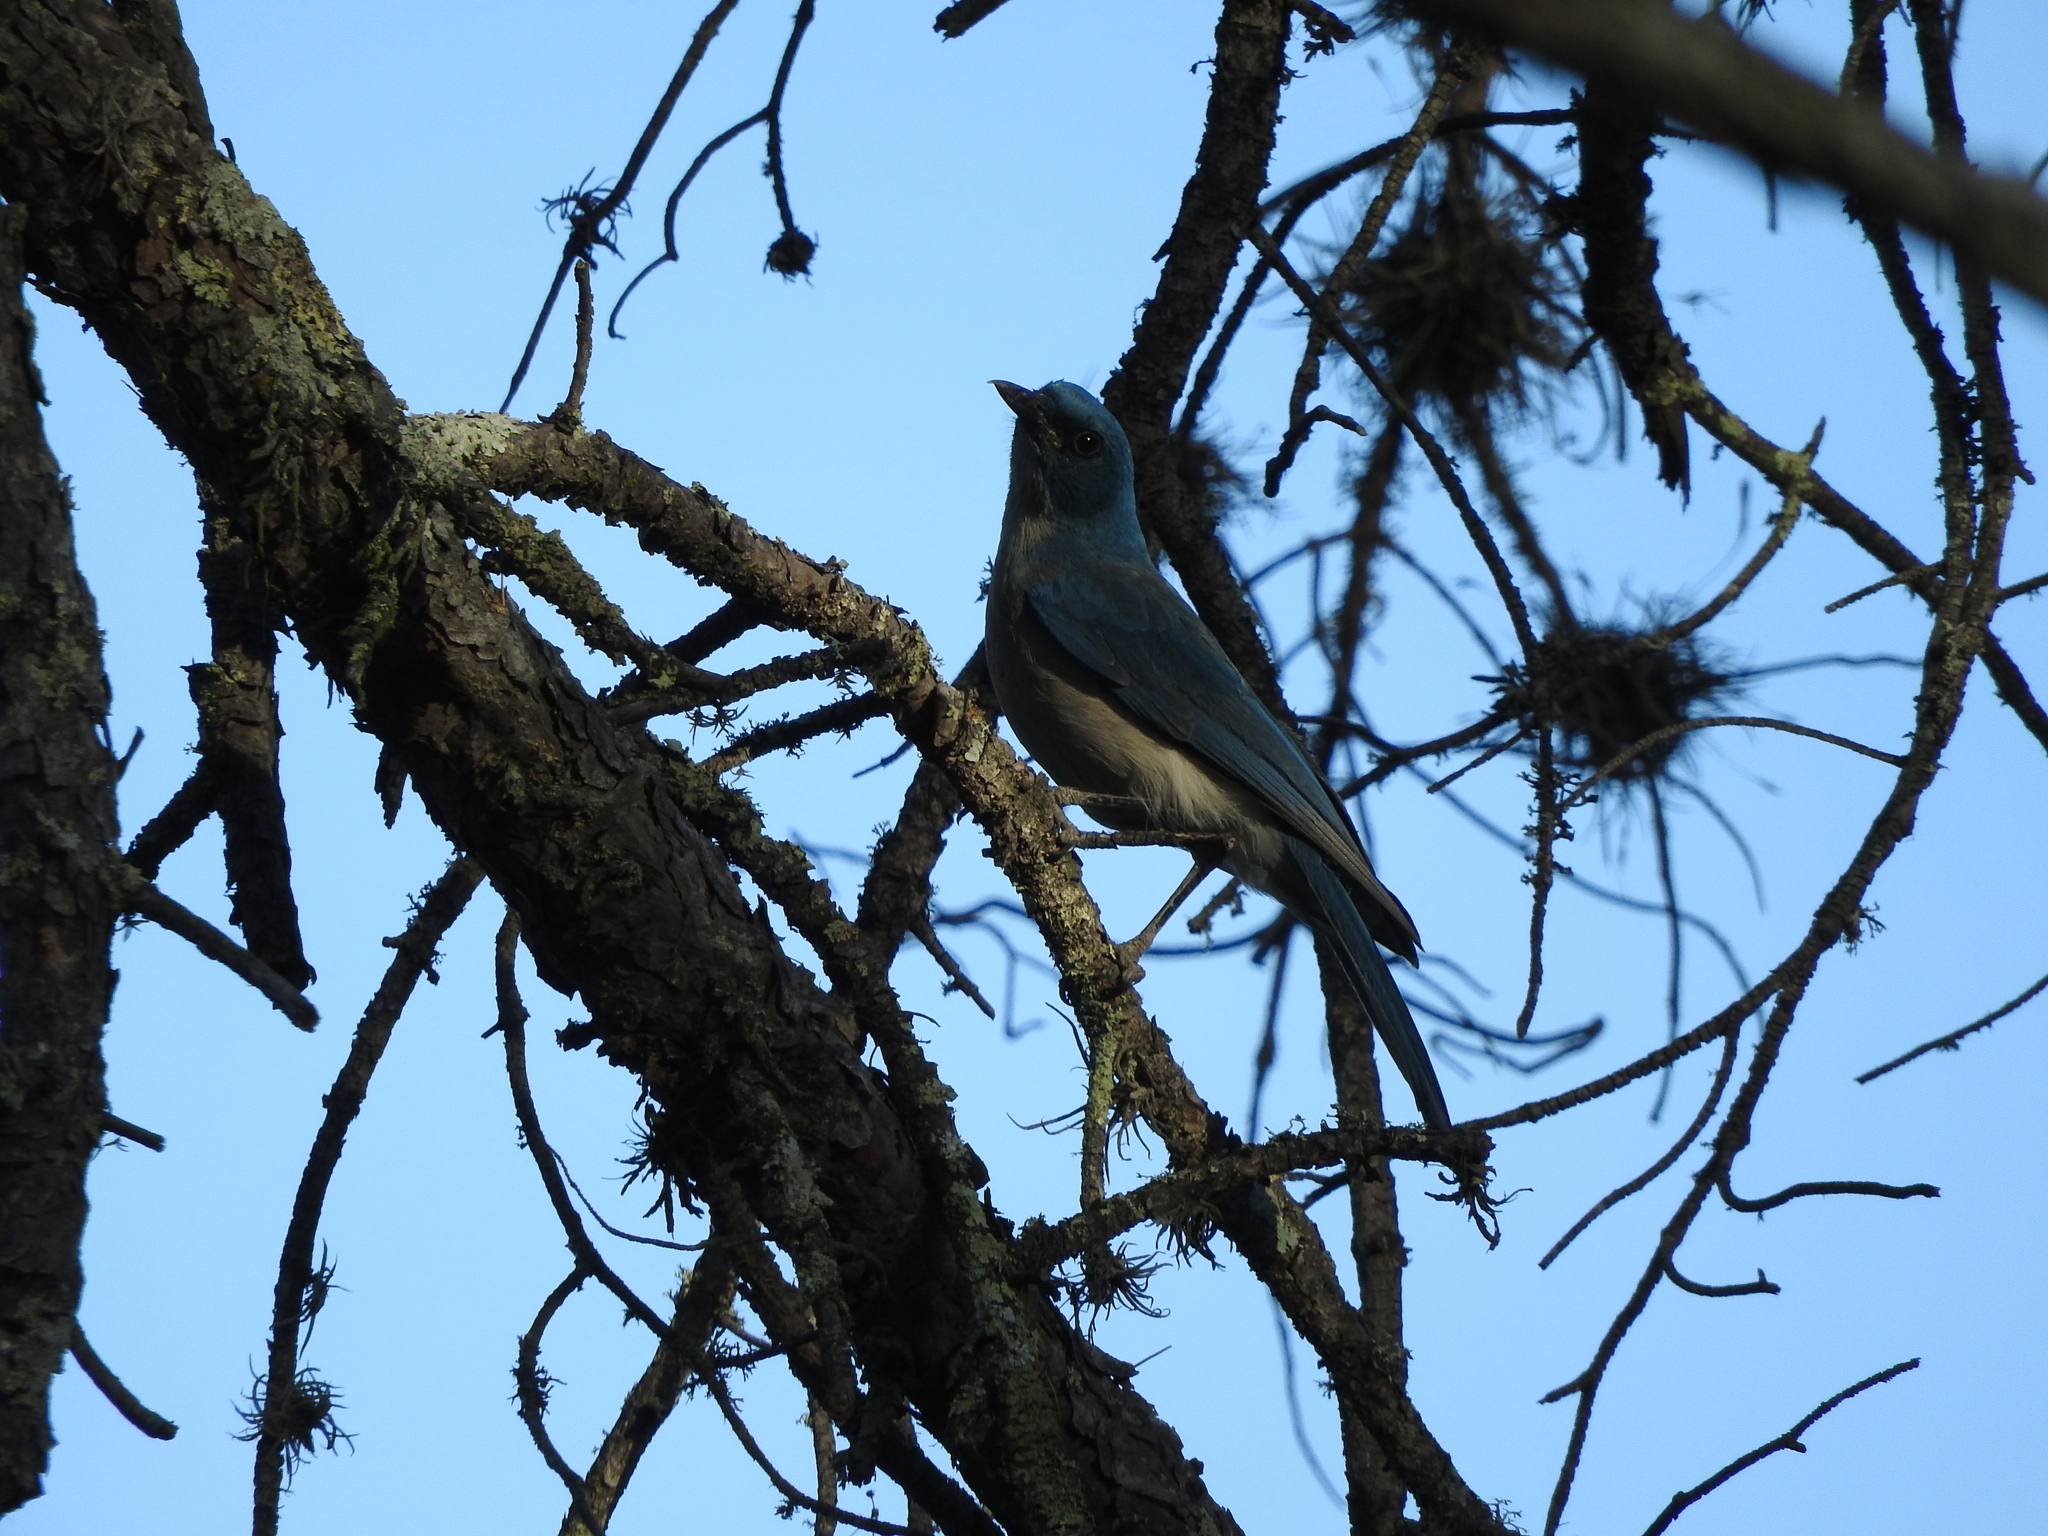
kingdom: Animalia
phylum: Chordata
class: Aves
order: Passeriformes
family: Corvidae
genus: Aphelocoma
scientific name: Aphelocoma wollweberi
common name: Mexican jay
